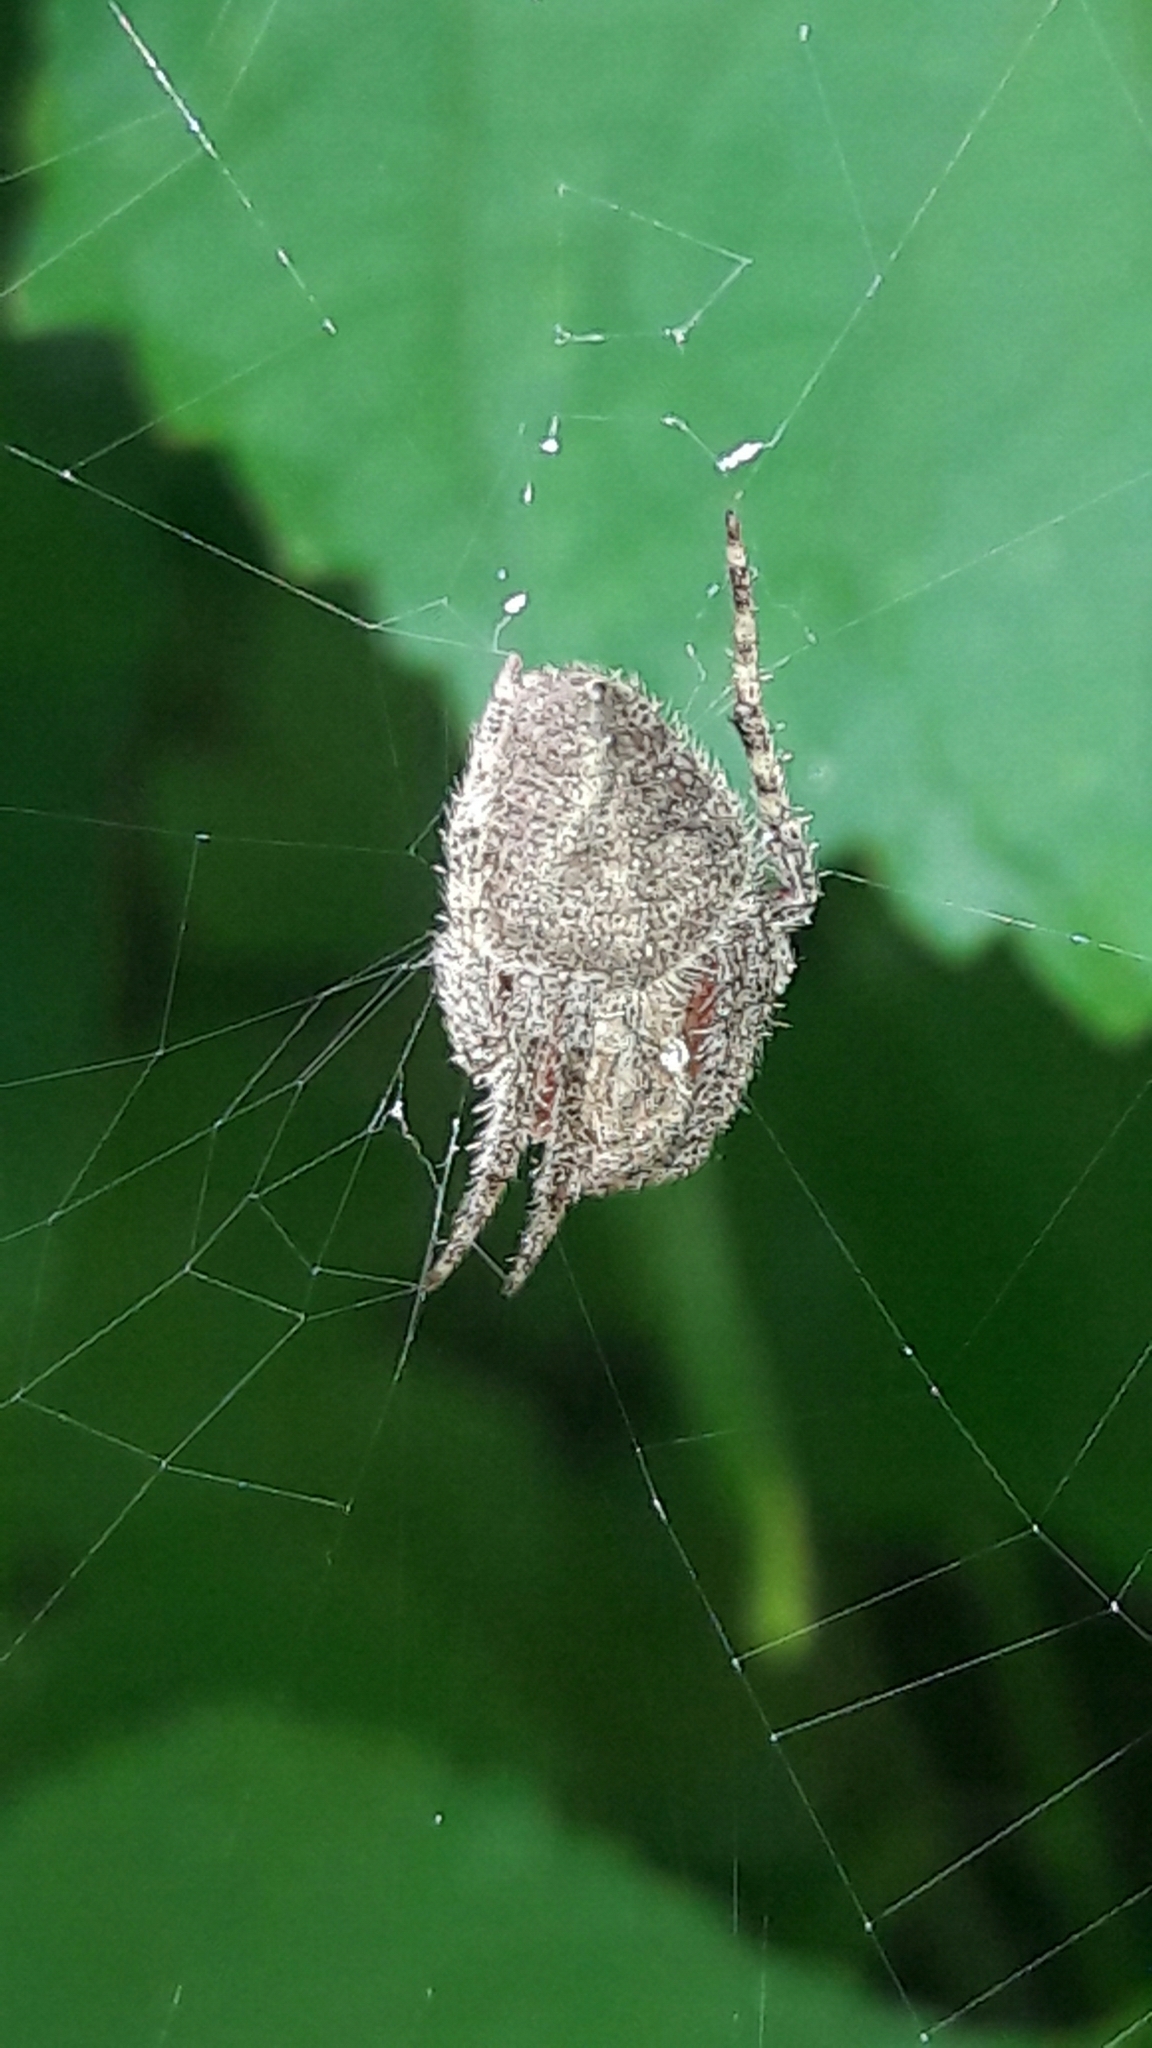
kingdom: Animalia
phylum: Arthropoda
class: Arachnida
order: Araneae
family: Araneidae
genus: Eriophora
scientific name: Eriophora edax
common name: Orb weavers
